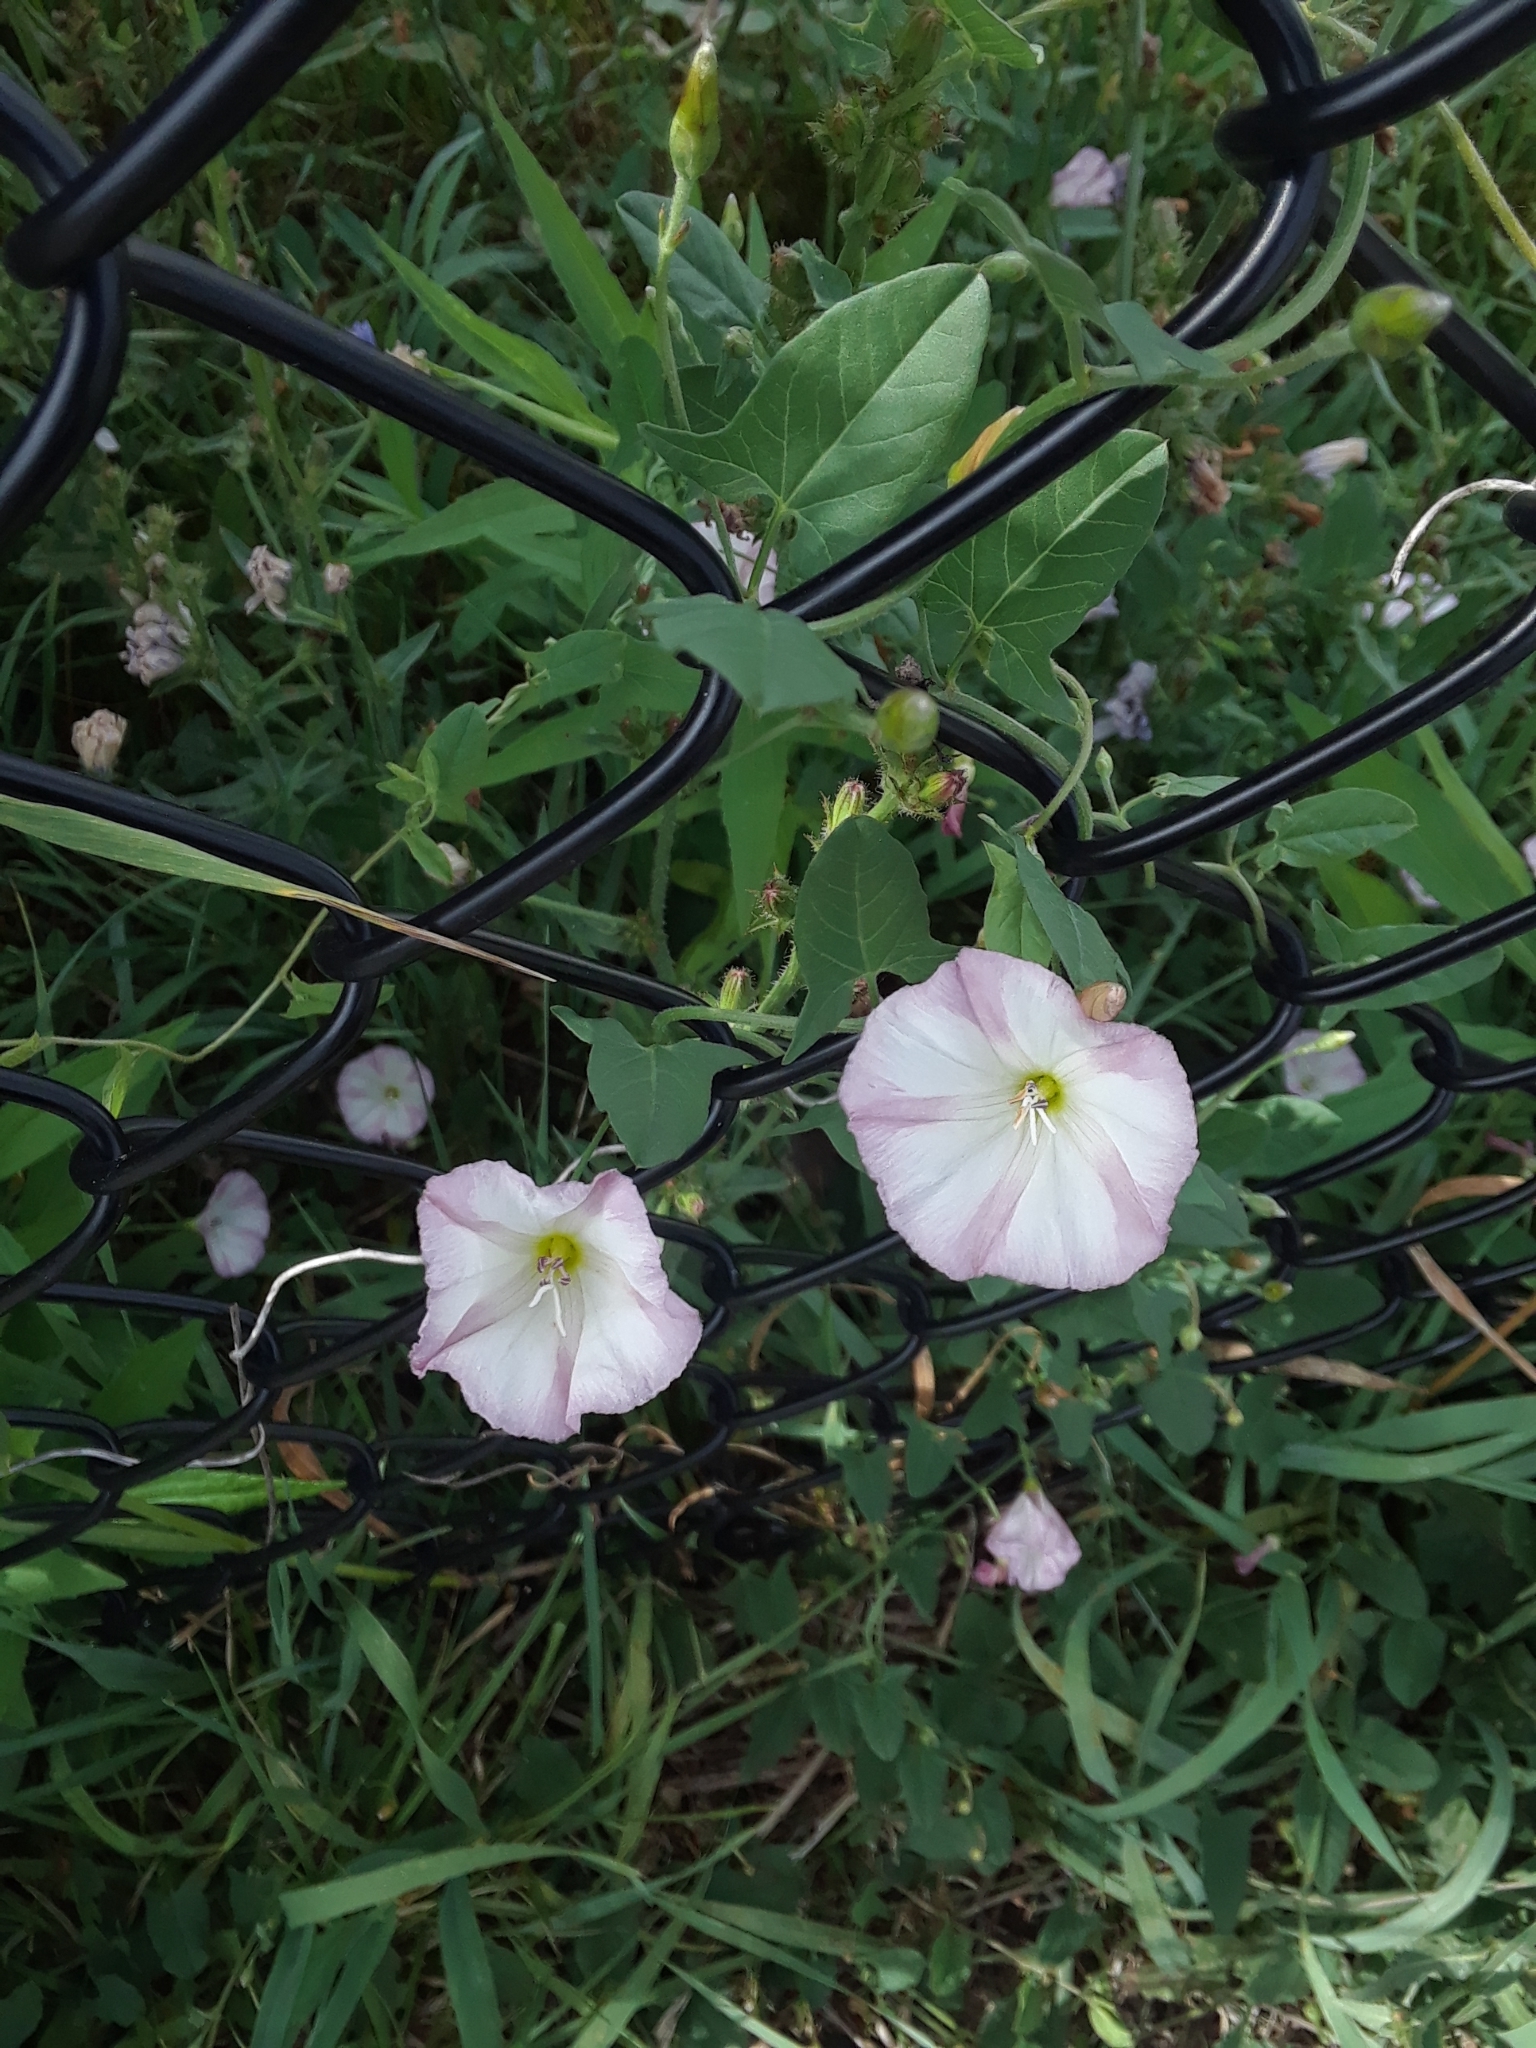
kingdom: Plantae
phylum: Tracheophyta
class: Magnoliopsida
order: Solanales
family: Convolvulaceae
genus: Convolvulus
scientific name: Convolvulus arvensis
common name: Field bindweed
